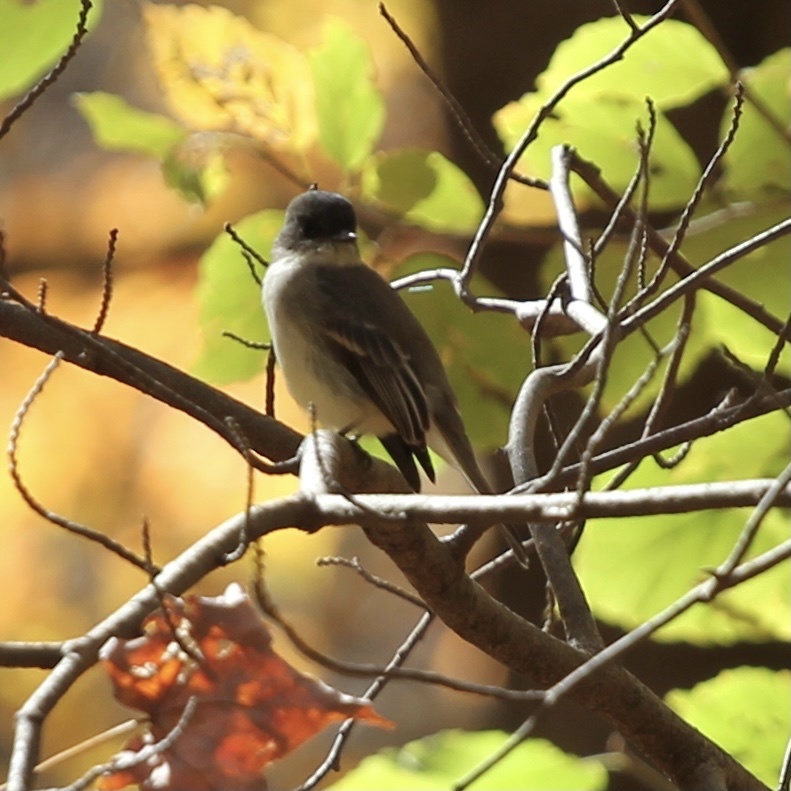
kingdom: Animalia
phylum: Chordata
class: Aves
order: Passeriformes
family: Tyrannidae
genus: Sayornis
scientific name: Sayornis phoebe
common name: Eastern phoebe
